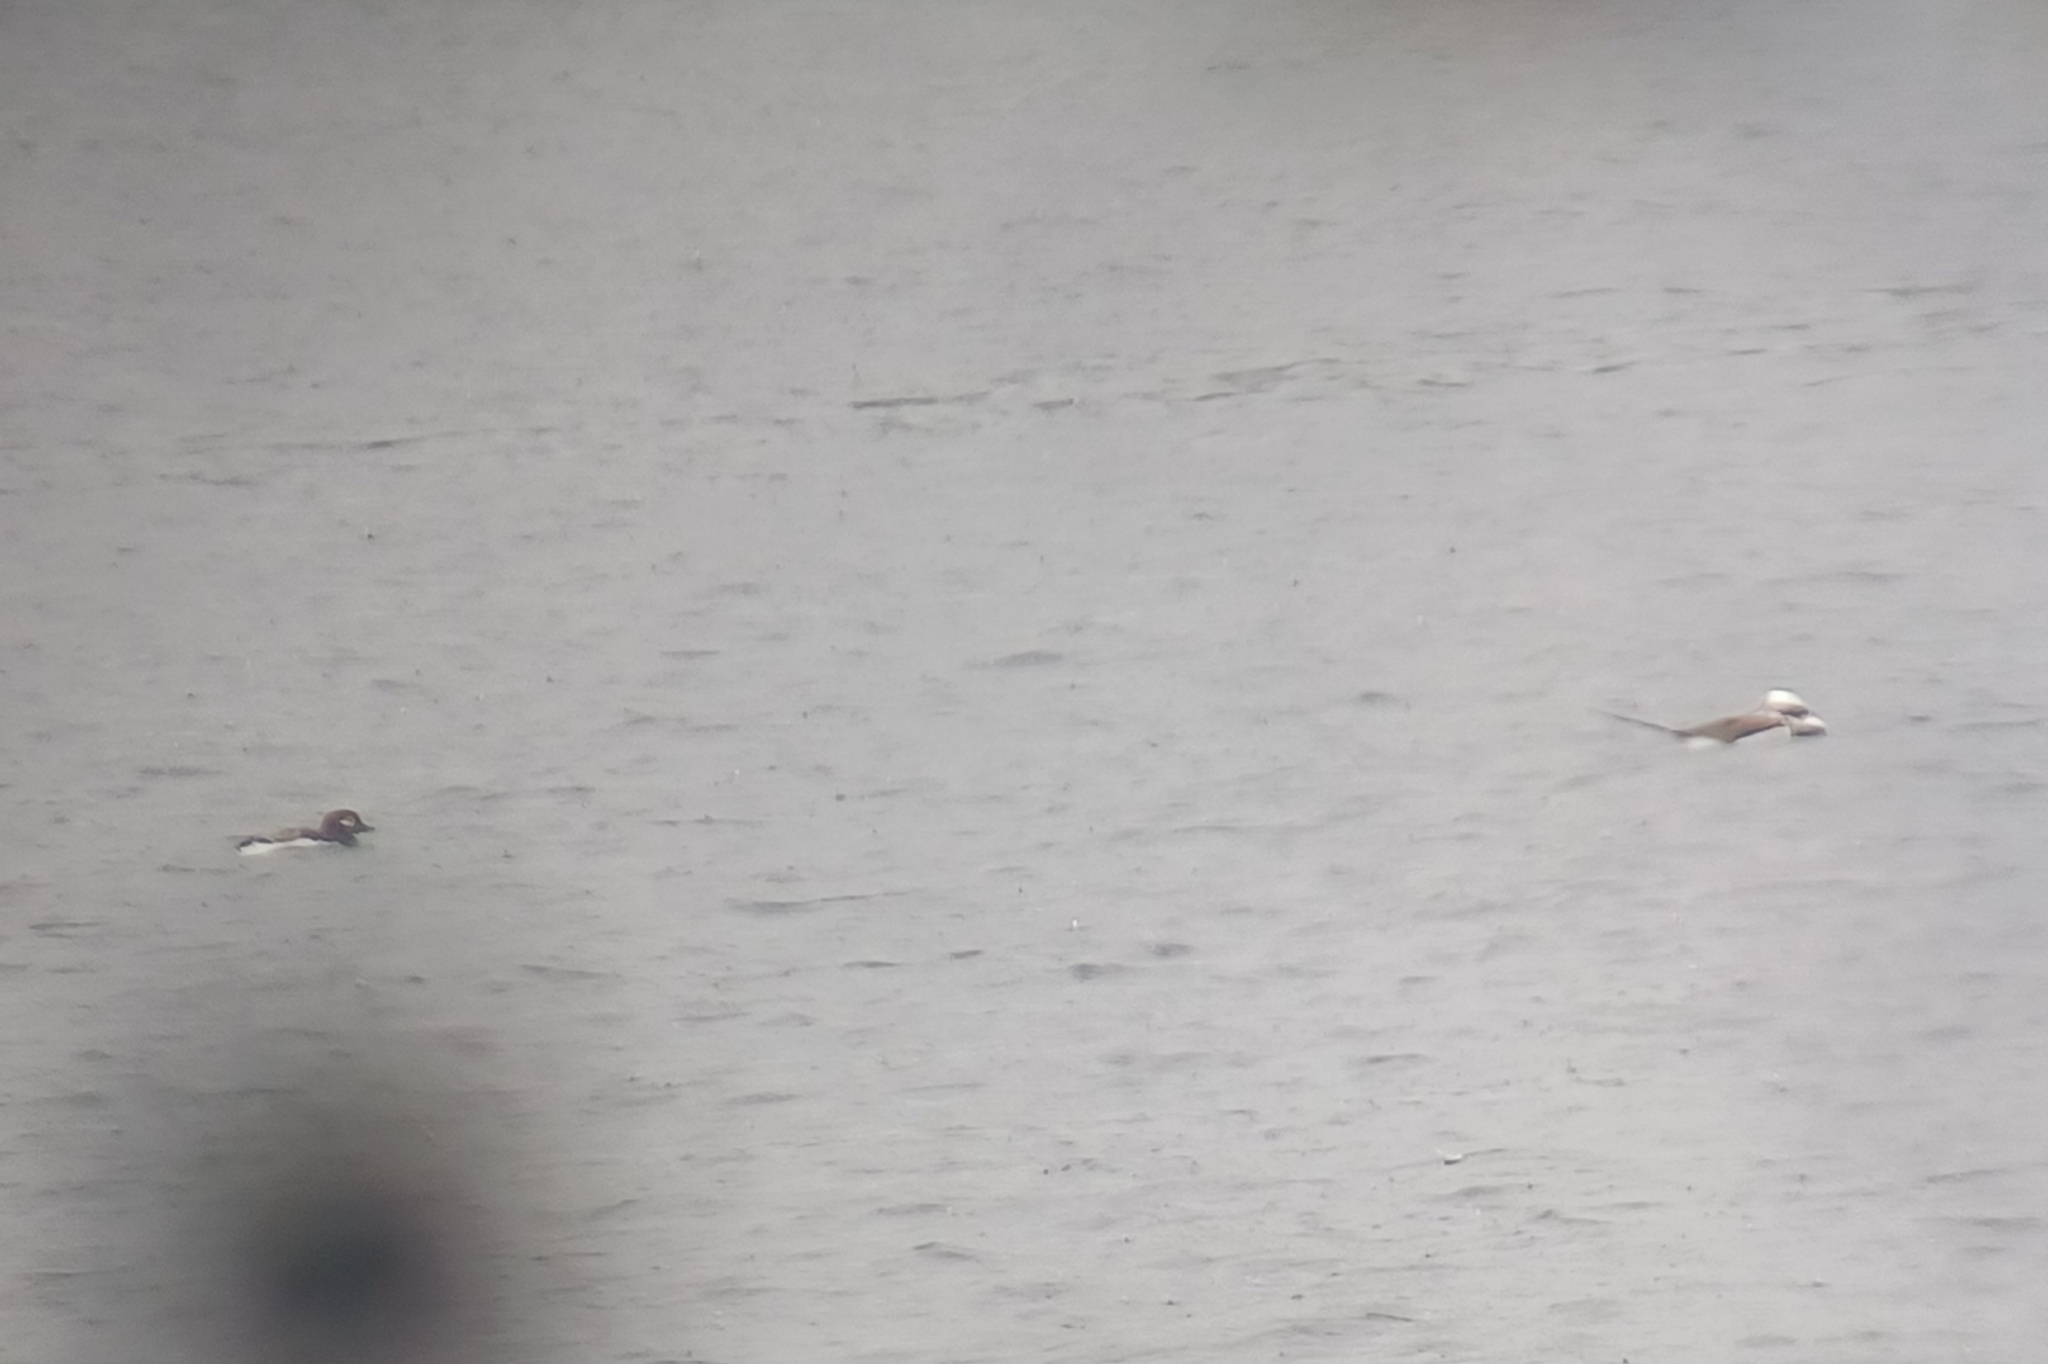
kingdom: Animalia
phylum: Chordata
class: Aves
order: Anseriformes
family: Anatidae
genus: Clangula
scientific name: Clangula hyemalis
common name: Long-tailed duck
